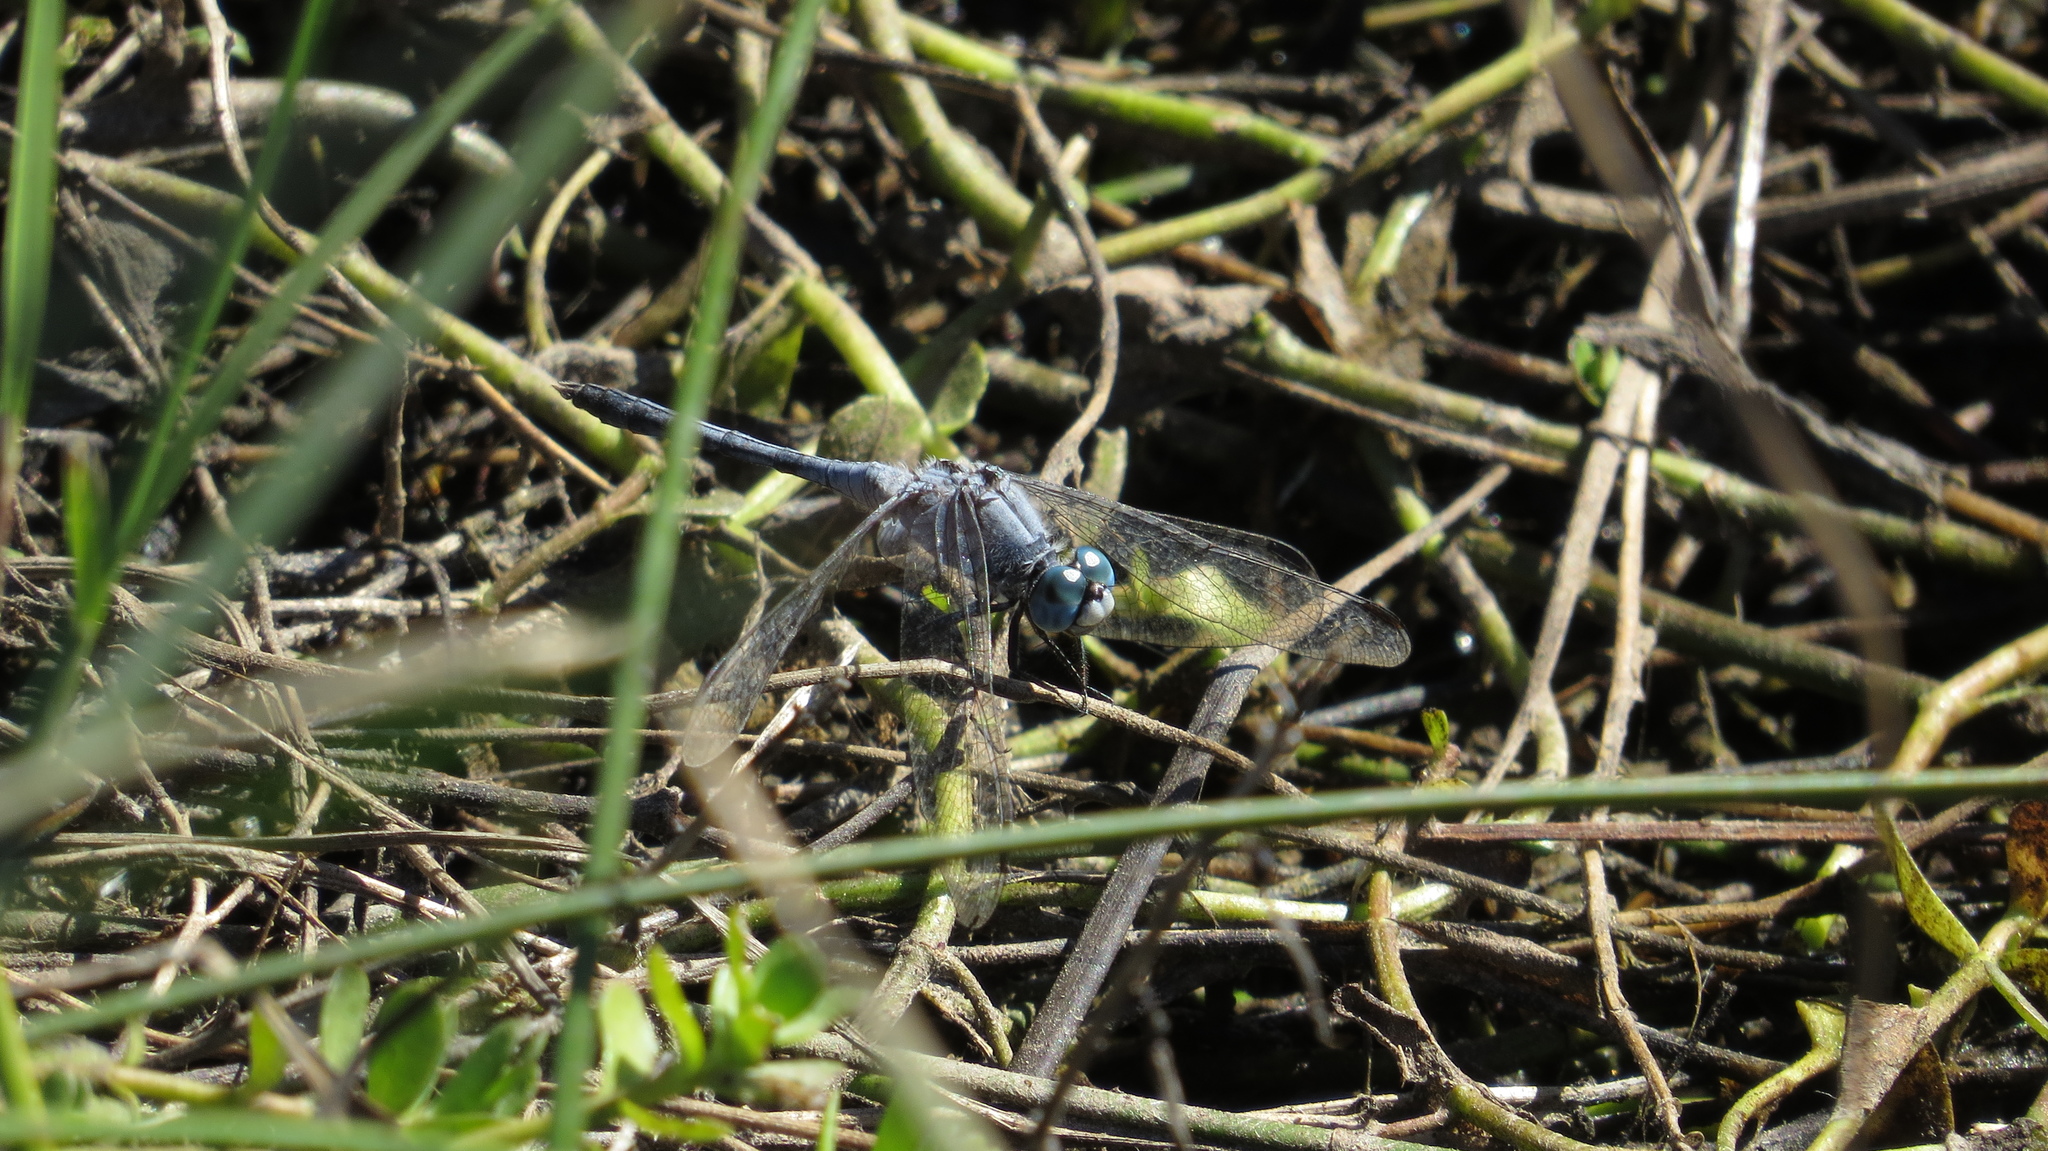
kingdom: Animalia
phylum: Arthropoda
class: Insecta
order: Odonata
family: Libellulidae
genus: Diplacodes
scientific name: Diplacodes trivialis
